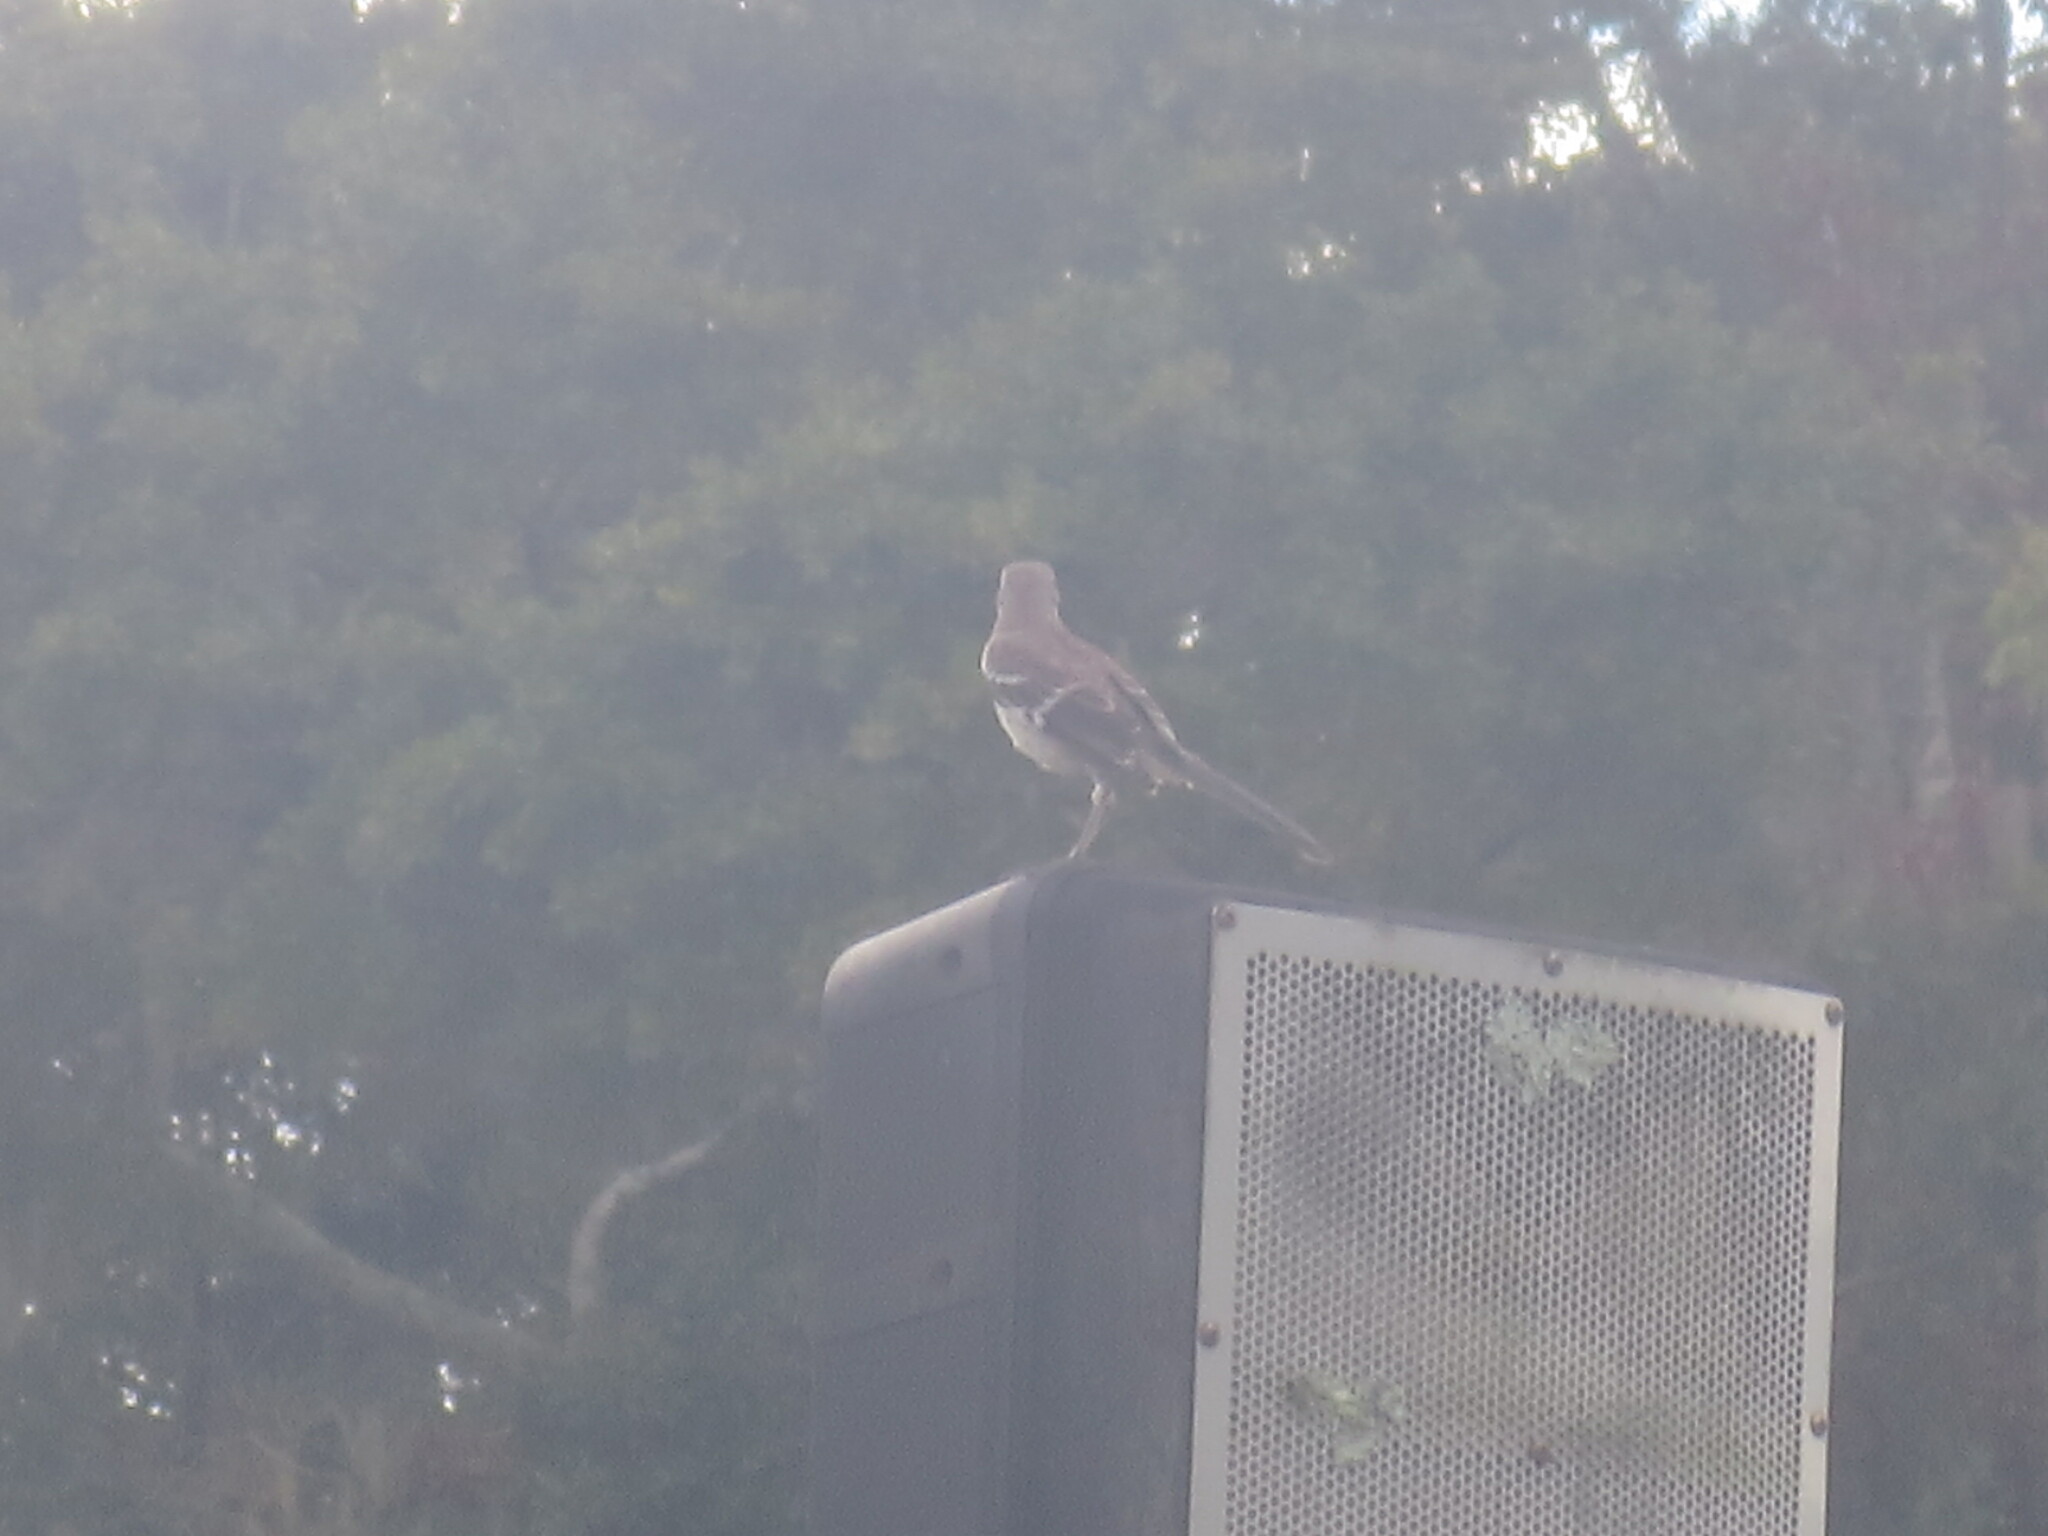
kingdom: Animalia
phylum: Chordata
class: Aves
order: Passeriformes
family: Mimidae
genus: Mimus
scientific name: Mimus polyglottos
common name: Northern mockingbird
